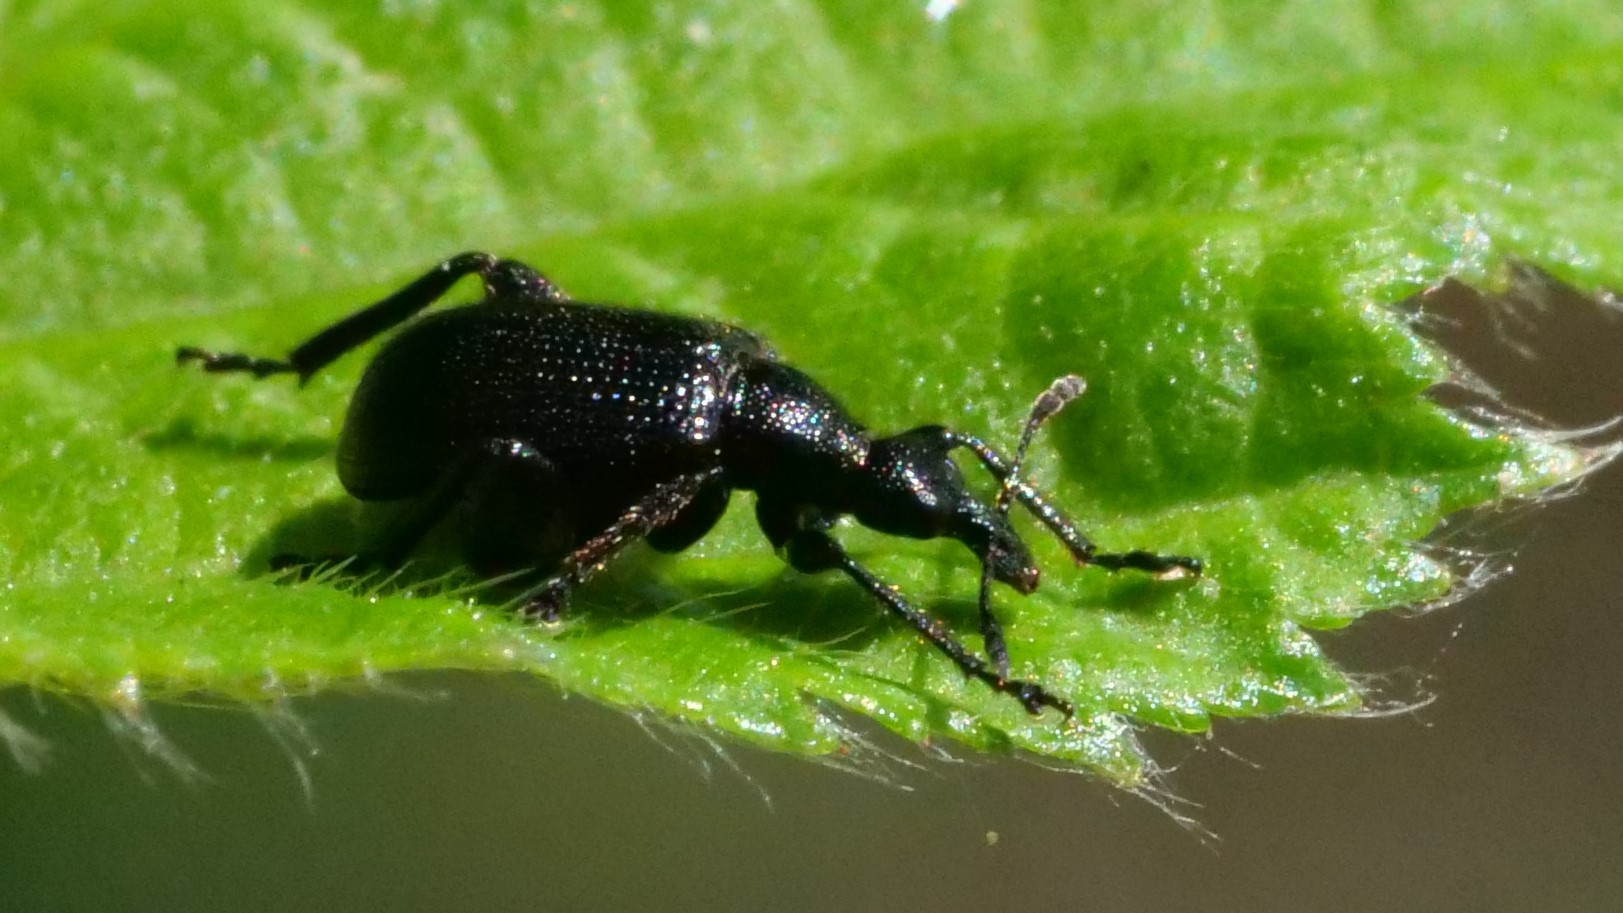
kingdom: Animalia
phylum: Arthropoda
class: Insecta
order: Coleoptera
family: Attelabidae
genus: Deporaus
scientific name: Deporaus betulae
